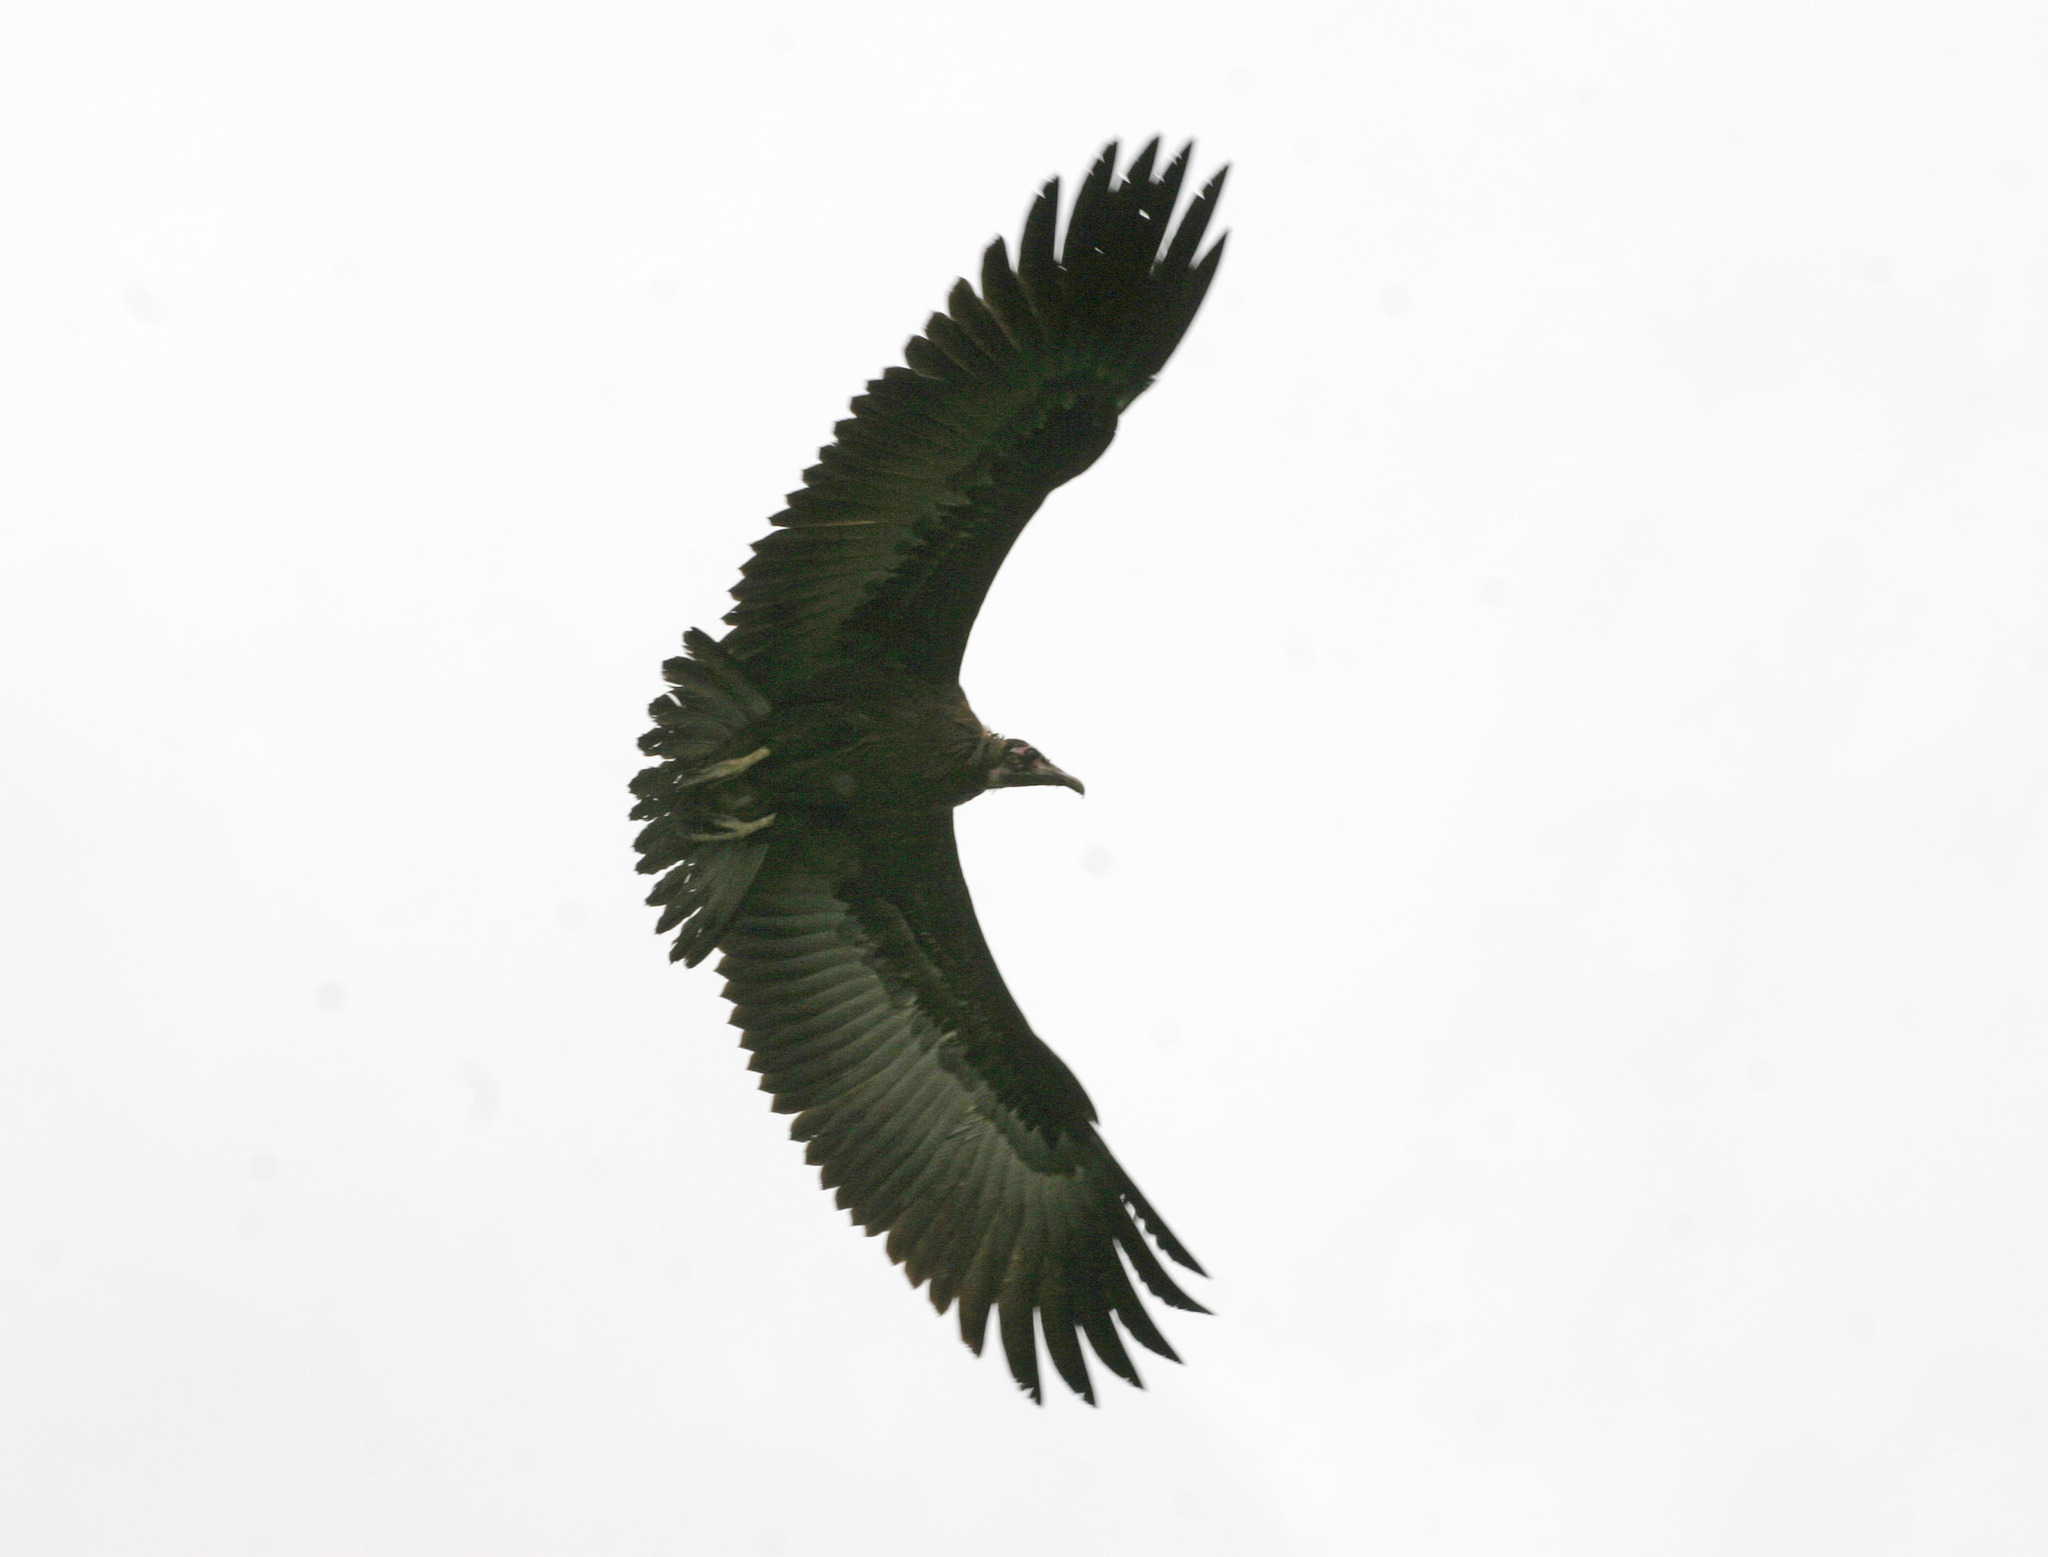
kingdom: Animalia
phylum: Chordata
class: Aves
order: Accipitriformes
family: Accipitridae
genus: Necrosyrtes
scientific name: Necrosyrtes monachus
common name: Hooded vulture
